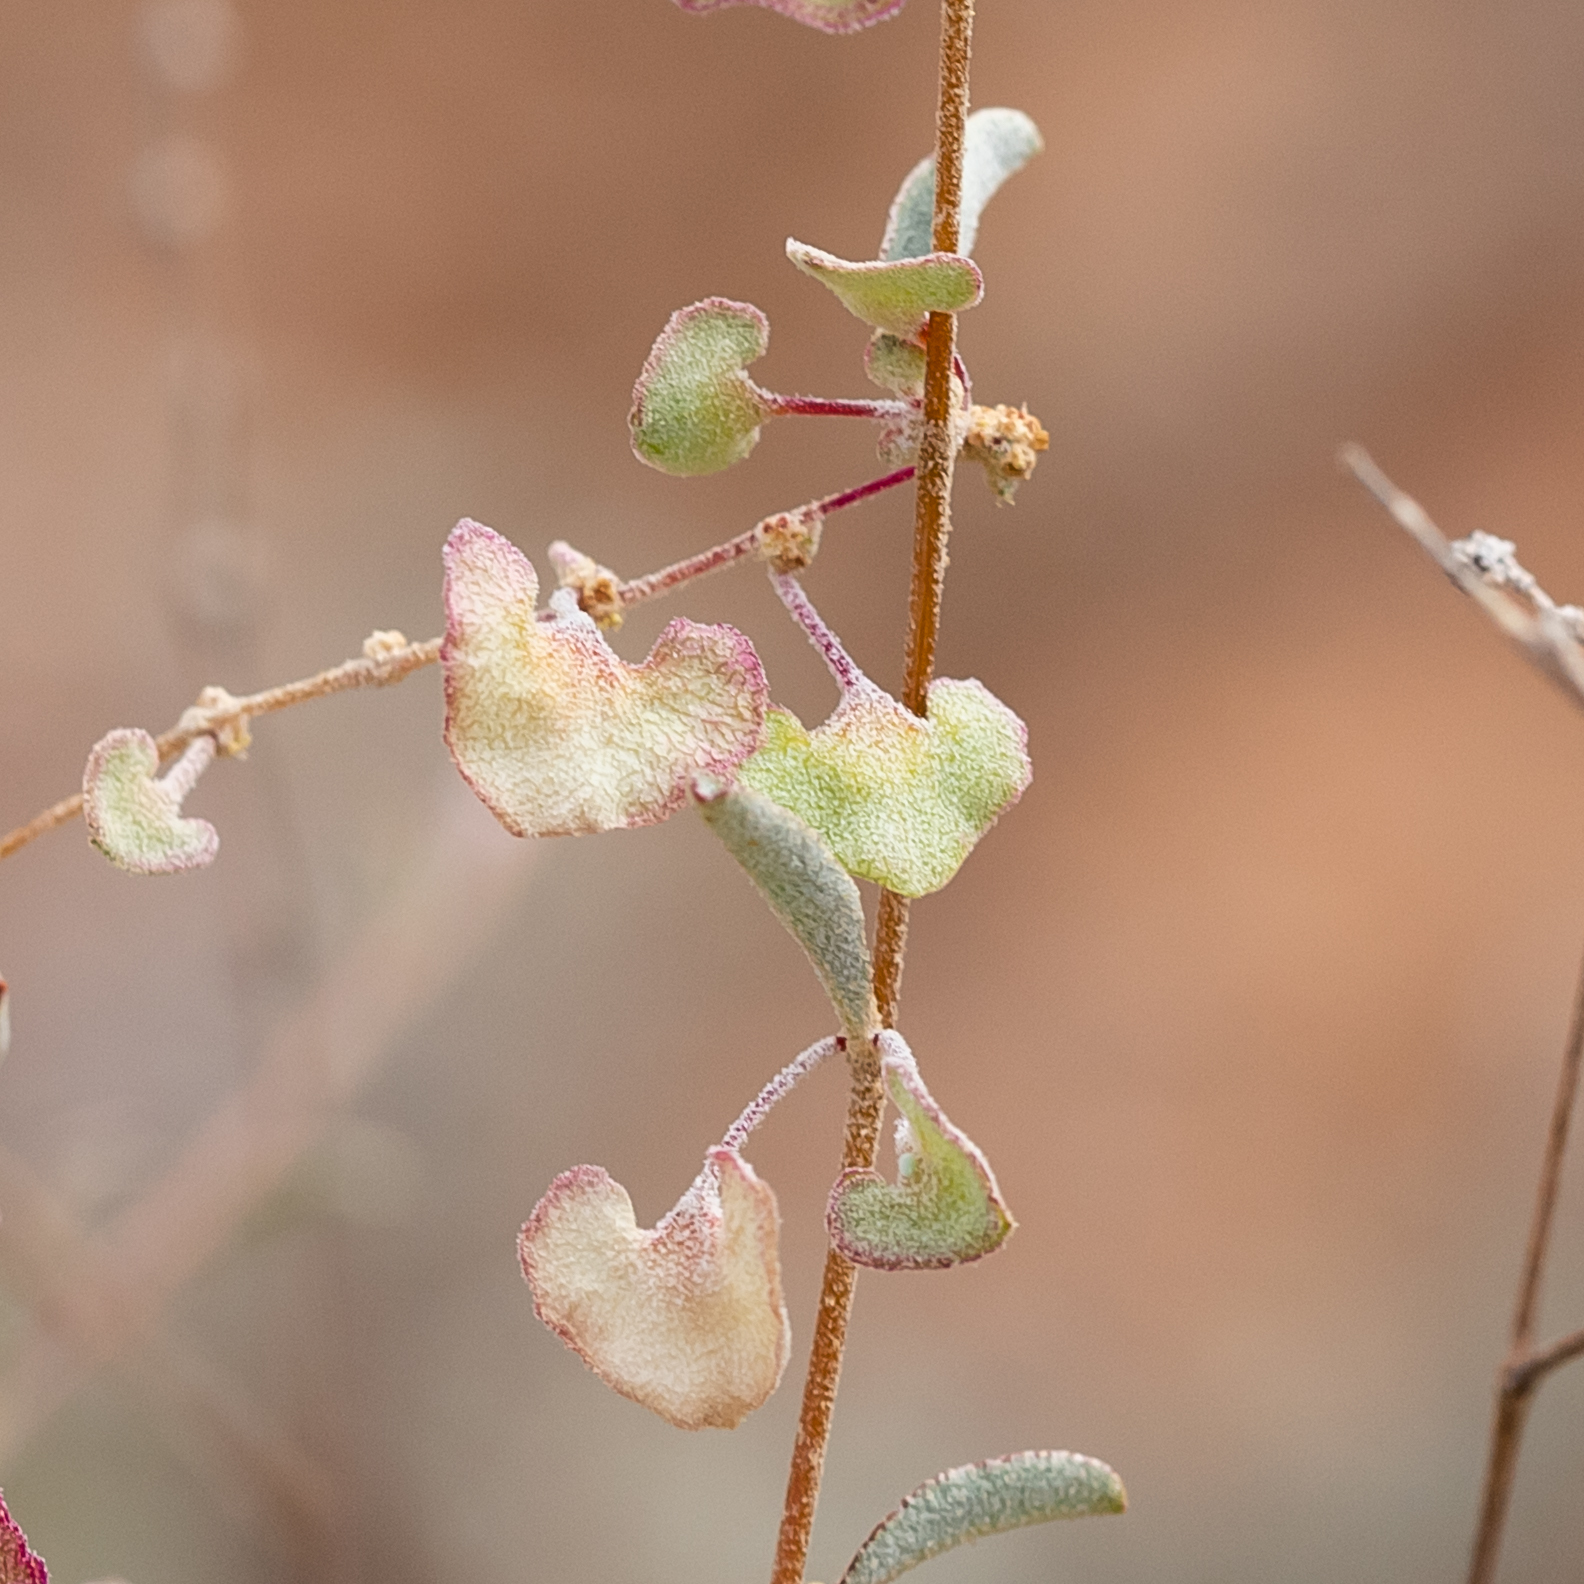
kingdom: Plantae
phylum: Tracheophyta
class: Magnoliopsida
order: Caryophyllales
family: Amaranthaceae
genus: Atriplex
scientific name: Atriplex stipitata
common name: Mallee saltbush
